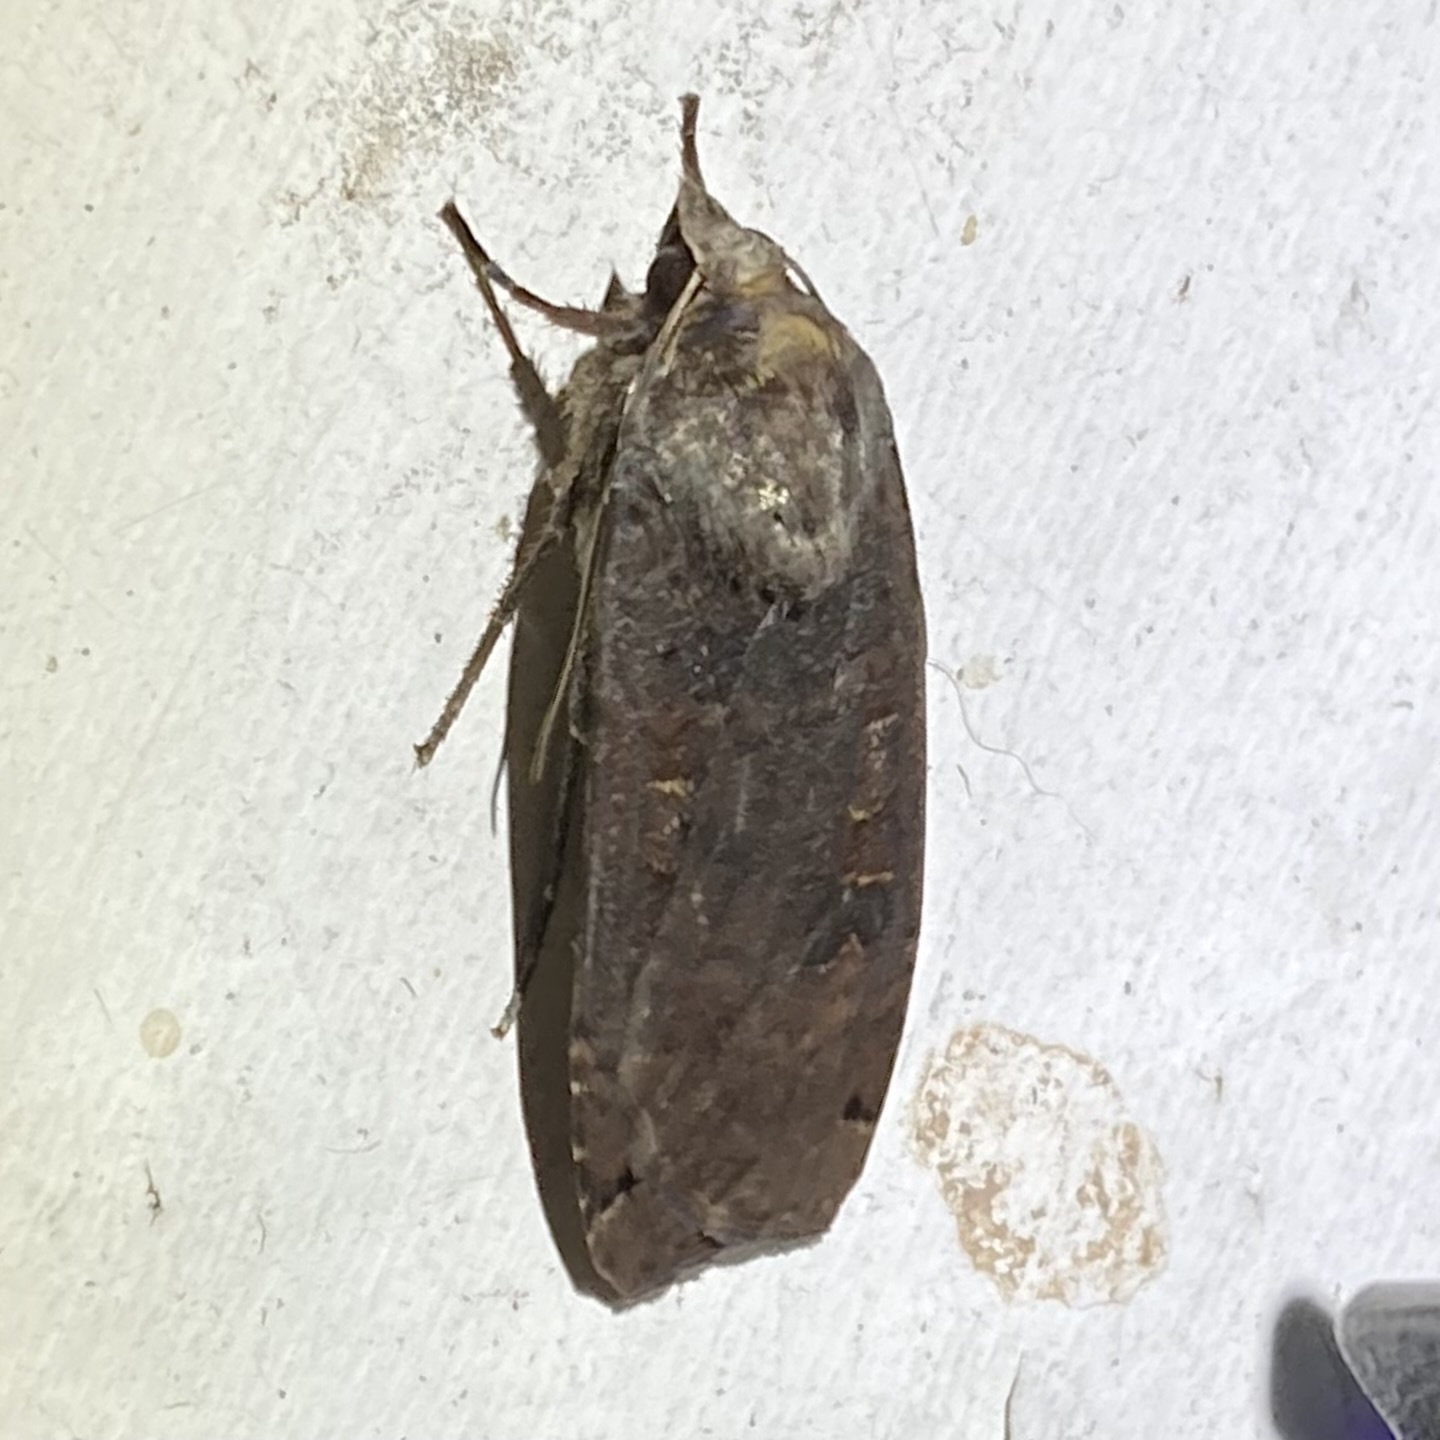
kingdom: Animalia
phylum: Arthropoda
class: Insecta
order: Lepidoptera
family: Noctuidae
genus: Noctua
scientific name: Noctua pronuba
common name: Large yellow underwing
